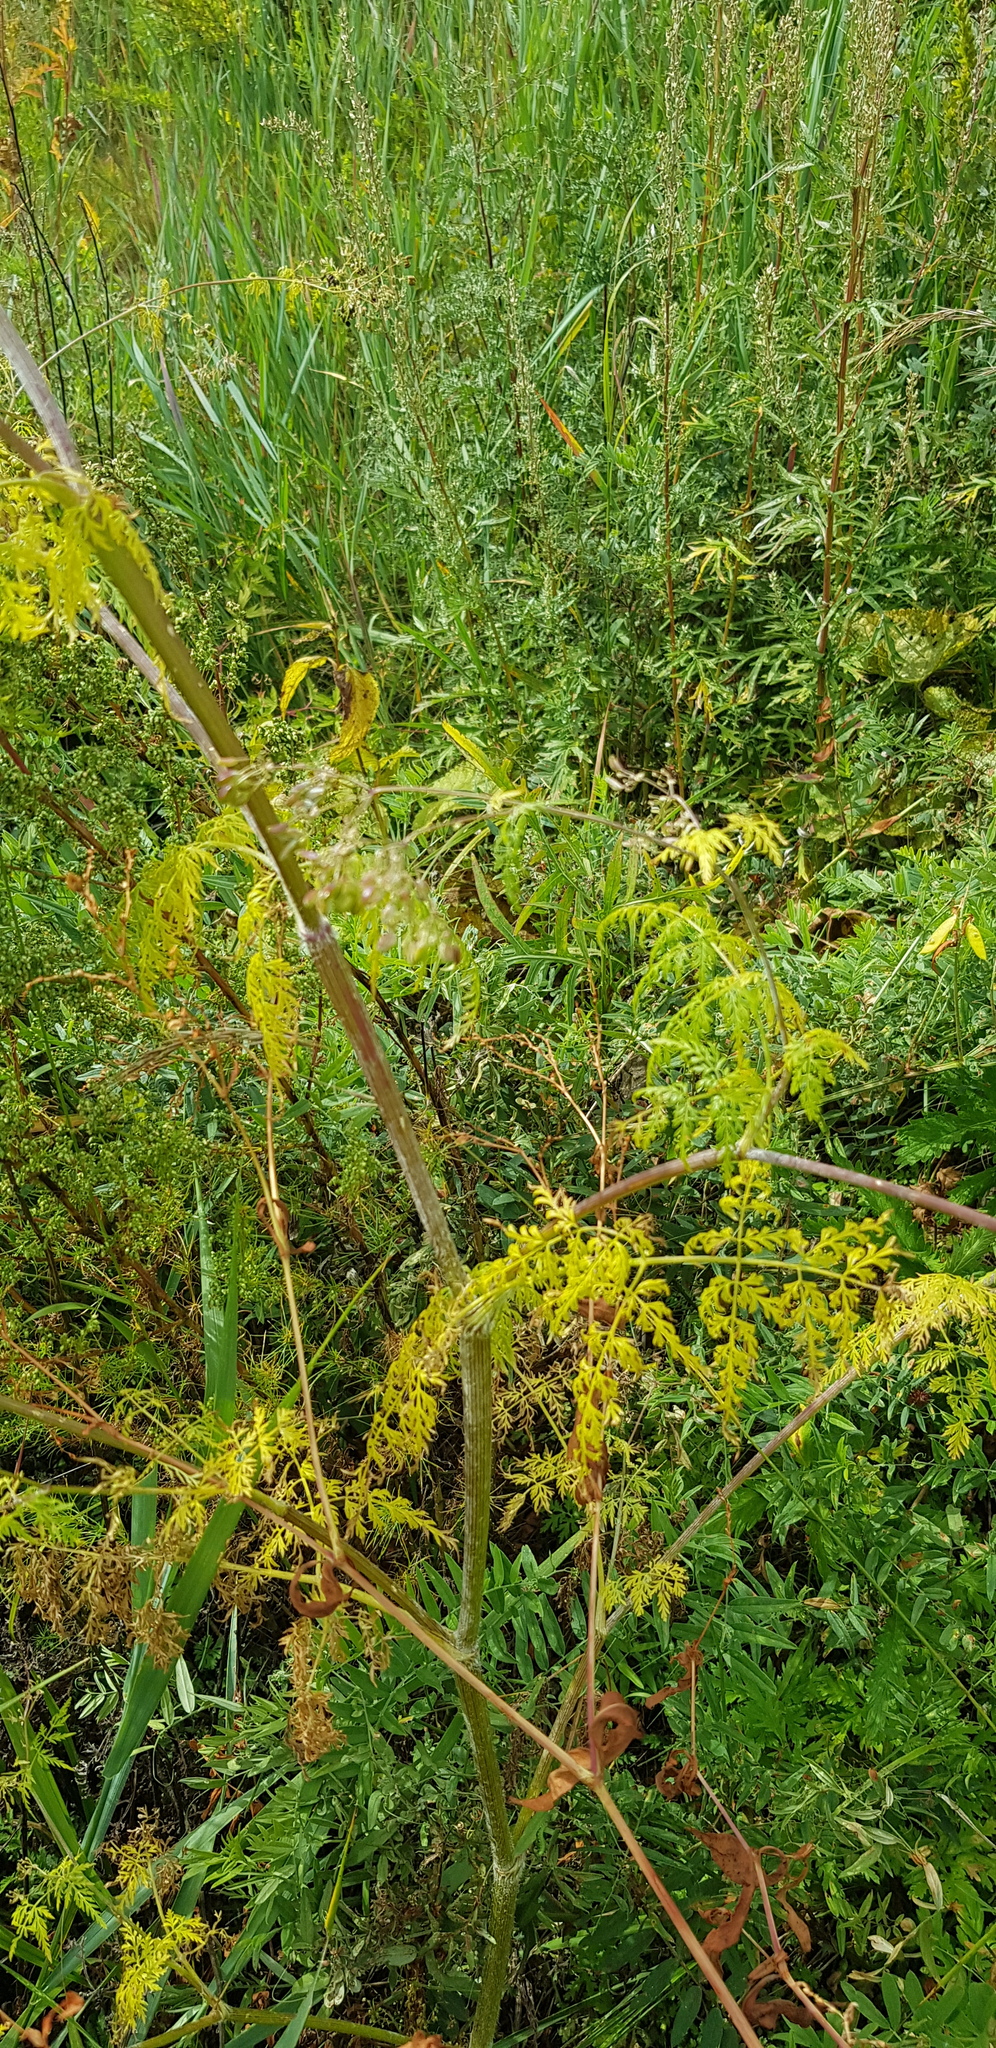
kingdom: Plantae
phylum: Tracheophyta
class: Magnoliopsida
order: Apiales
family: Apiaceae
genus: Sphallerocarpus
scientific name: Sphallerocarpus gracilis
